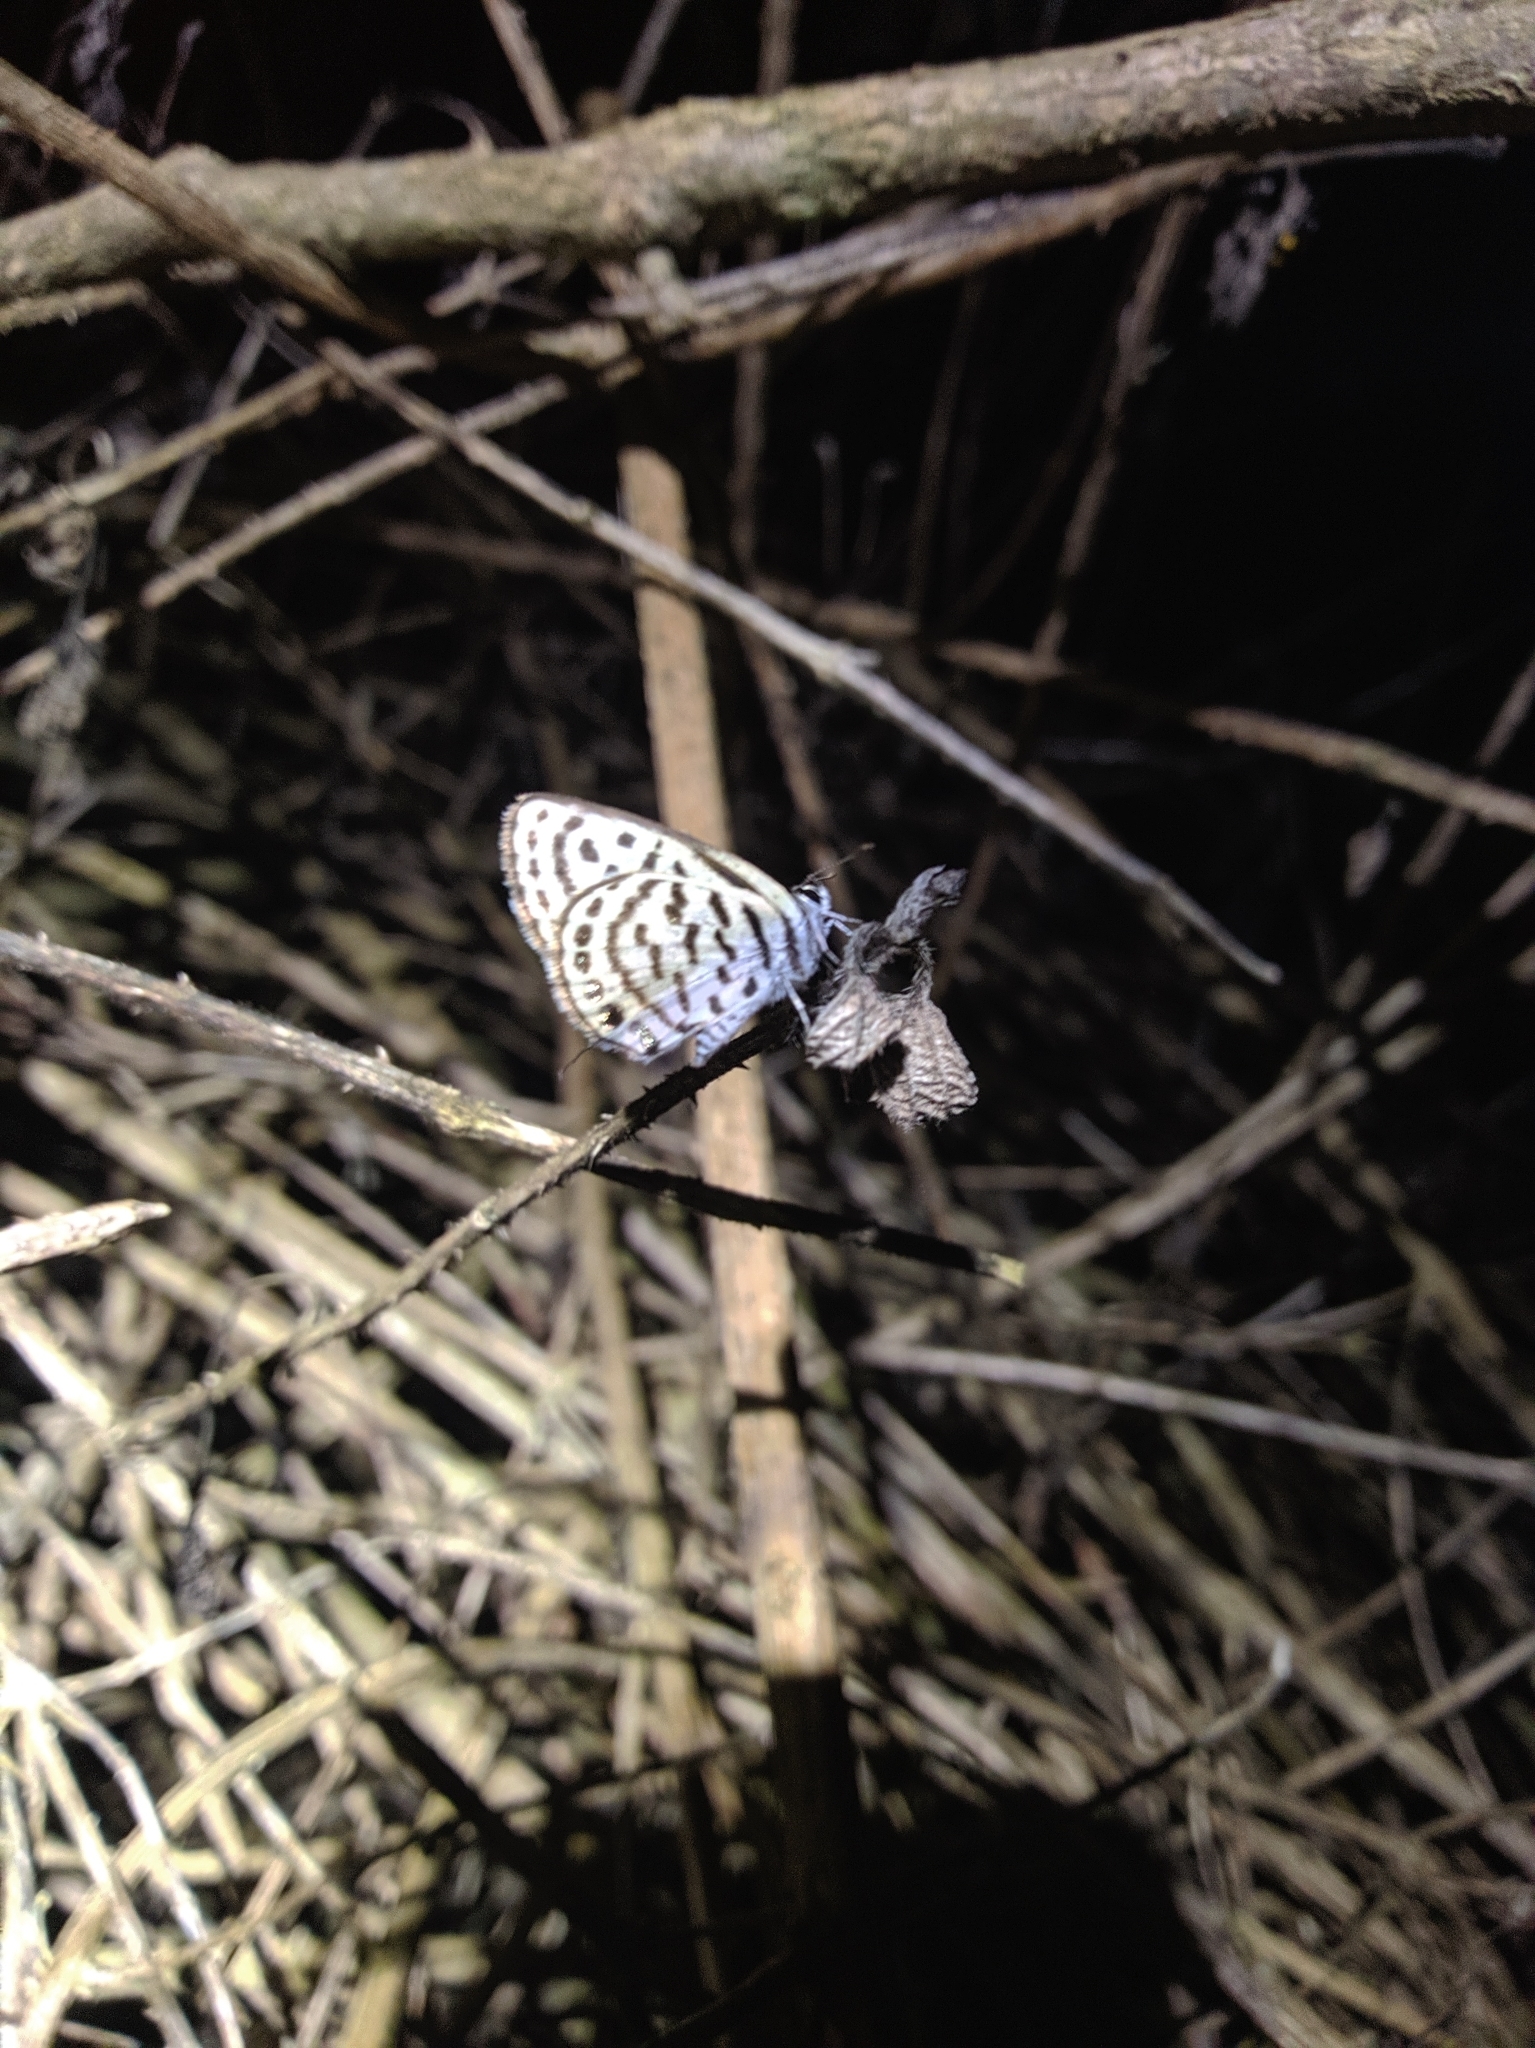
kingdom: Animalia
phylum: Arthropoda
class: Insecta
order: Lepidoptera
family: Lycaenidae
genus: Tarucus
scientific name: Tarucus
